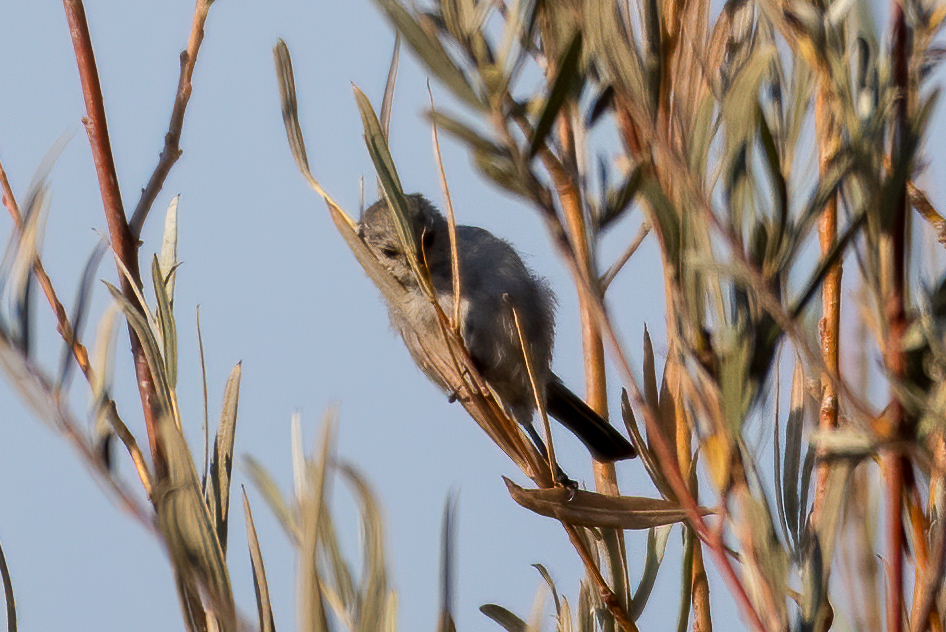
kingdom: Animalia
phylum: Chordata
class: Aves
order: Passeriformes
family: Aegithalidae
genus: Psaltriparus
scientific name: Psaltriparus minimus
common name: American bushtit
